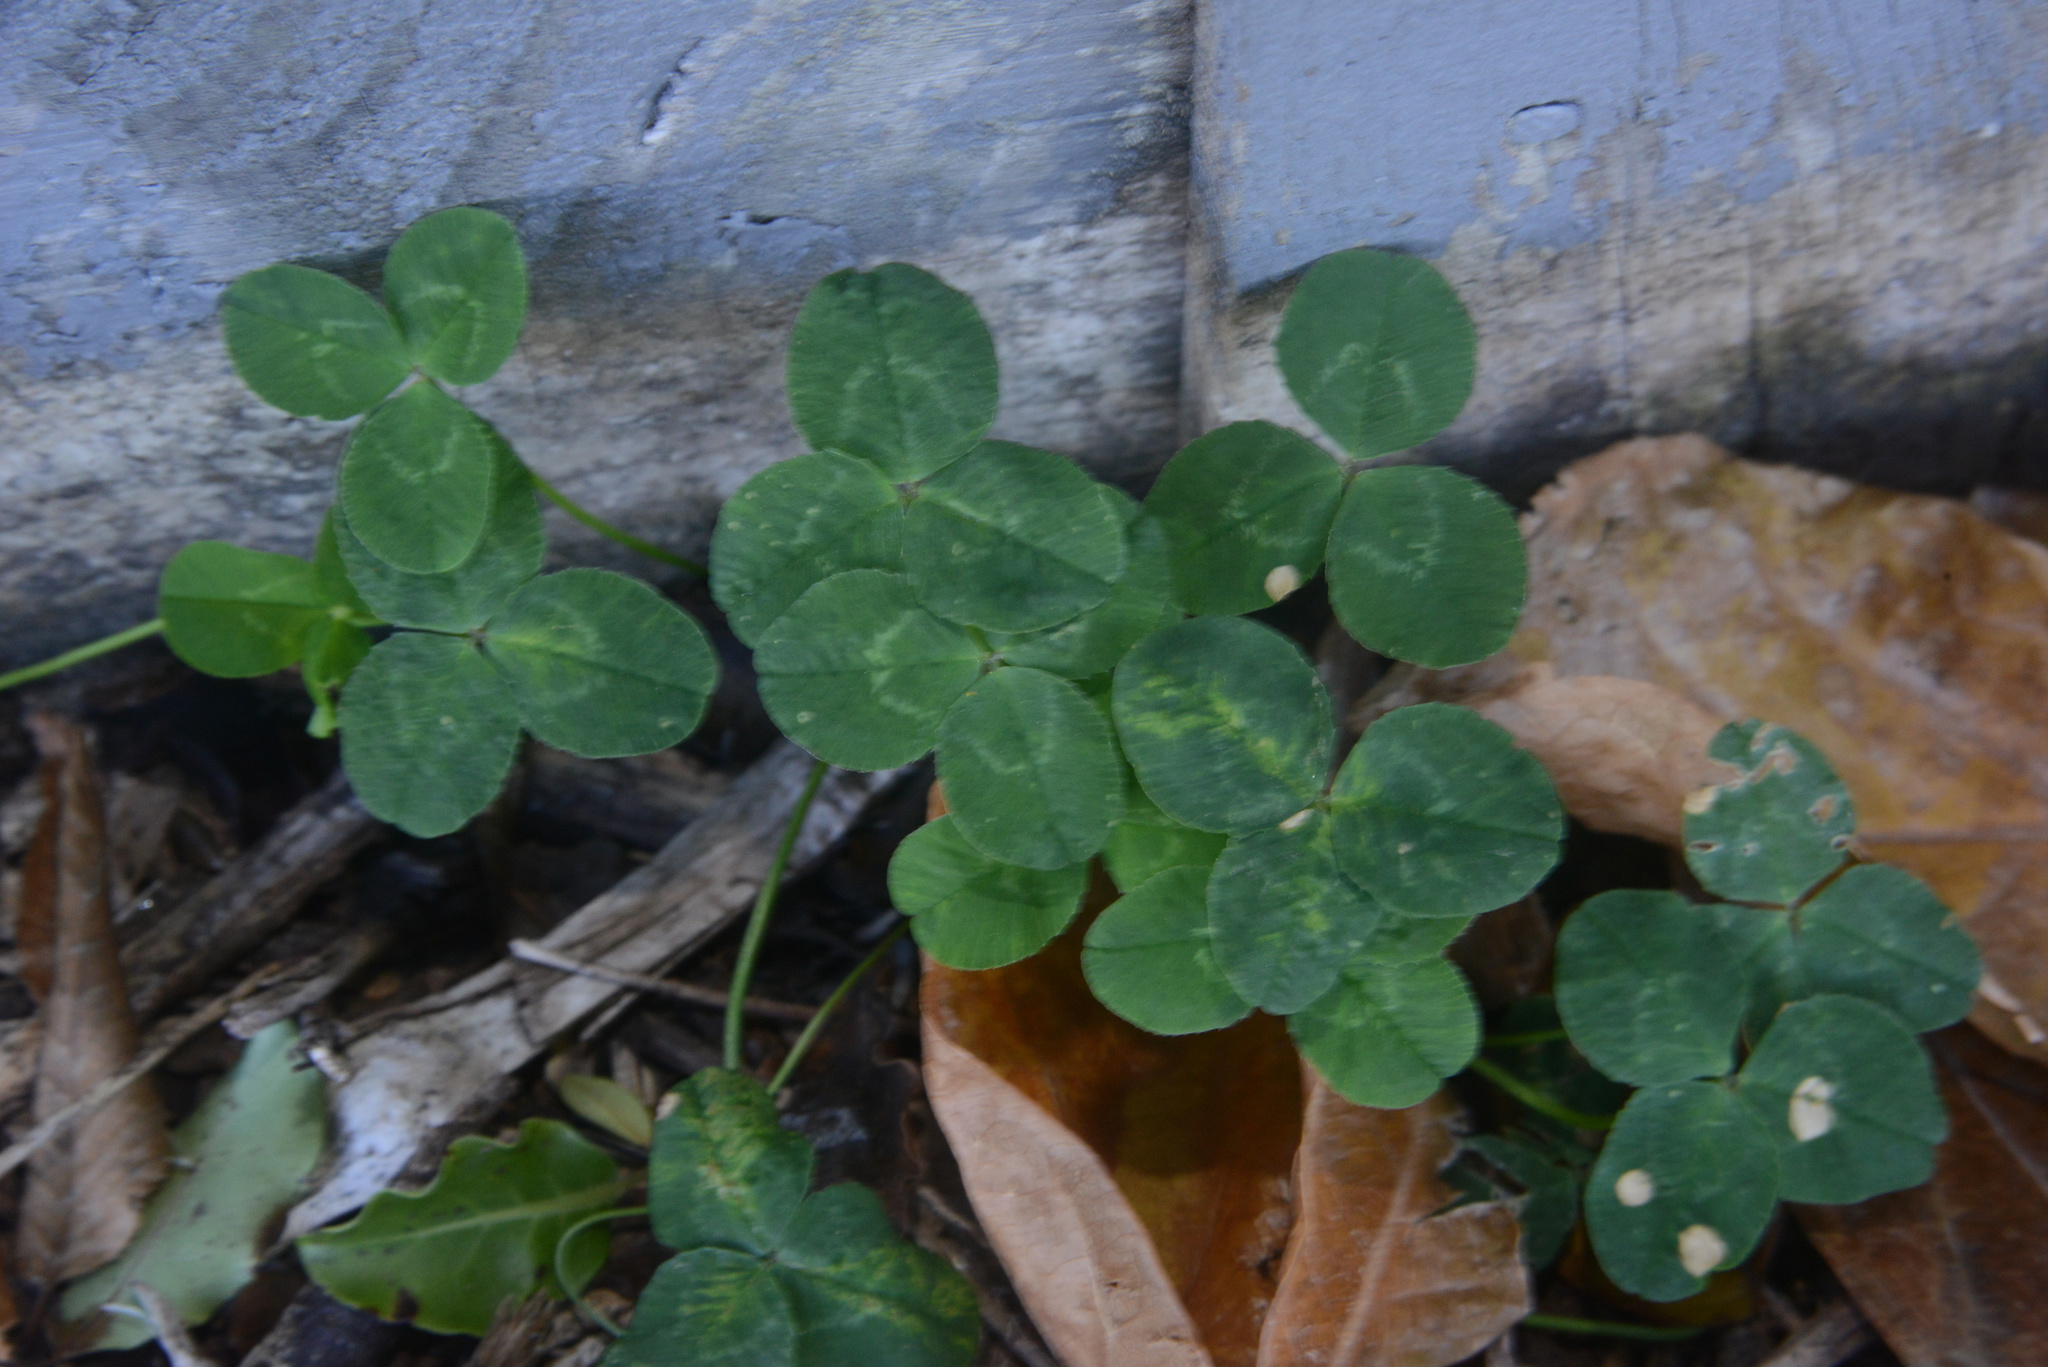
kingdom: Plantae
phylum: Tracheophyta
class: Magnoliopsida
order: Fabales
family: Fabaceae
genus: Trifolium
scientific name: Trifolium repens
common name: White clover
